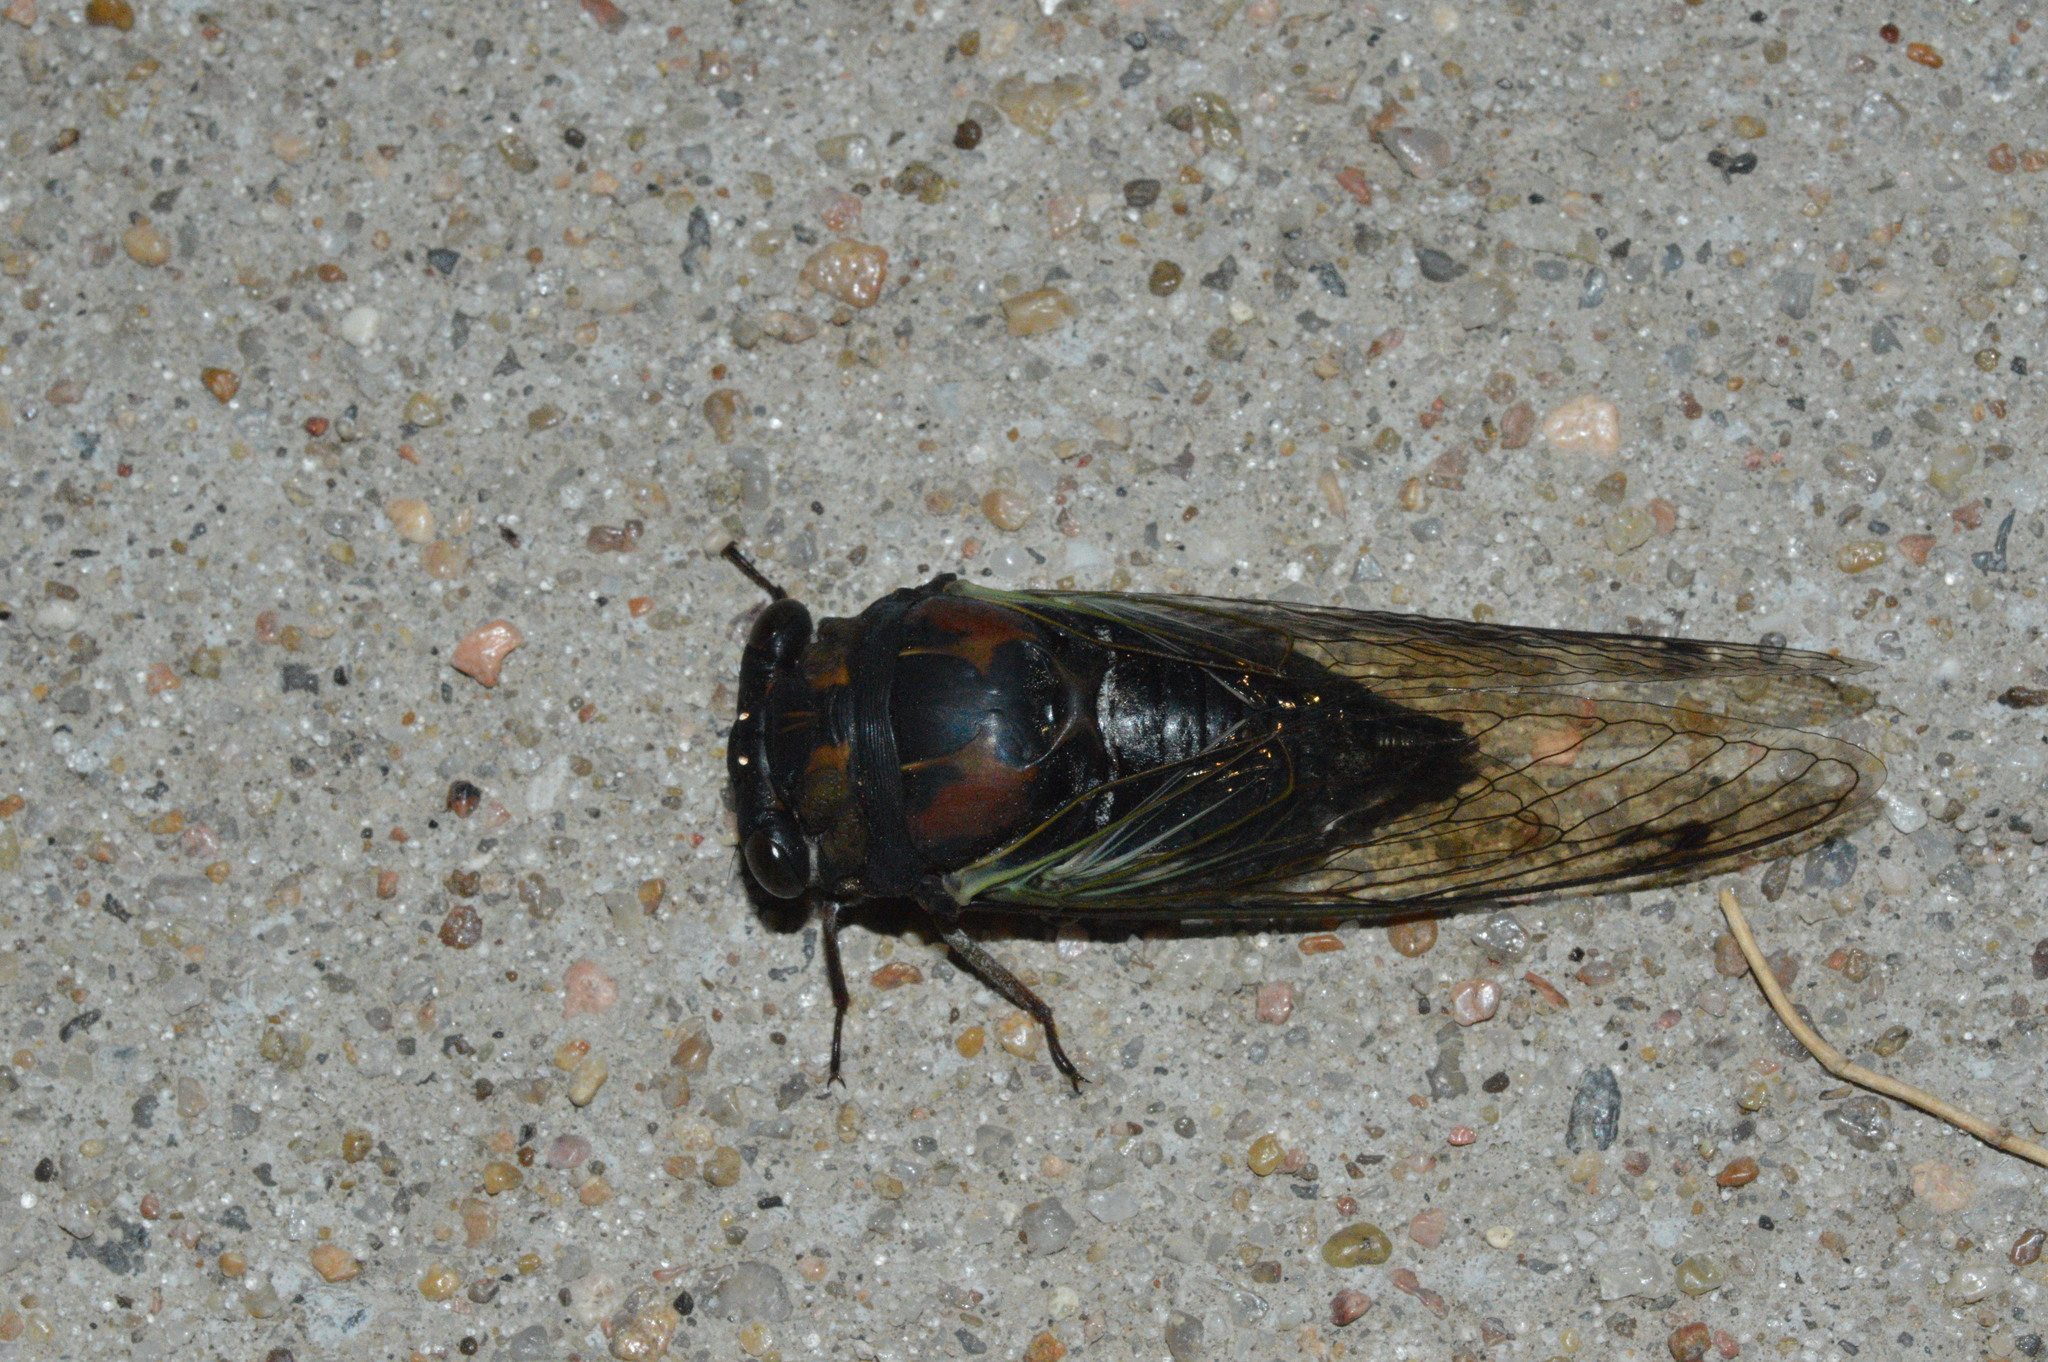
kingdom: Animalia
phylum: Arthropoda
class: Insecta
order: Hemiptera
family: Cicadidae
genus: Neotibicen
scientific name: Neotibicen lyricen
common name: Lyric cicada
